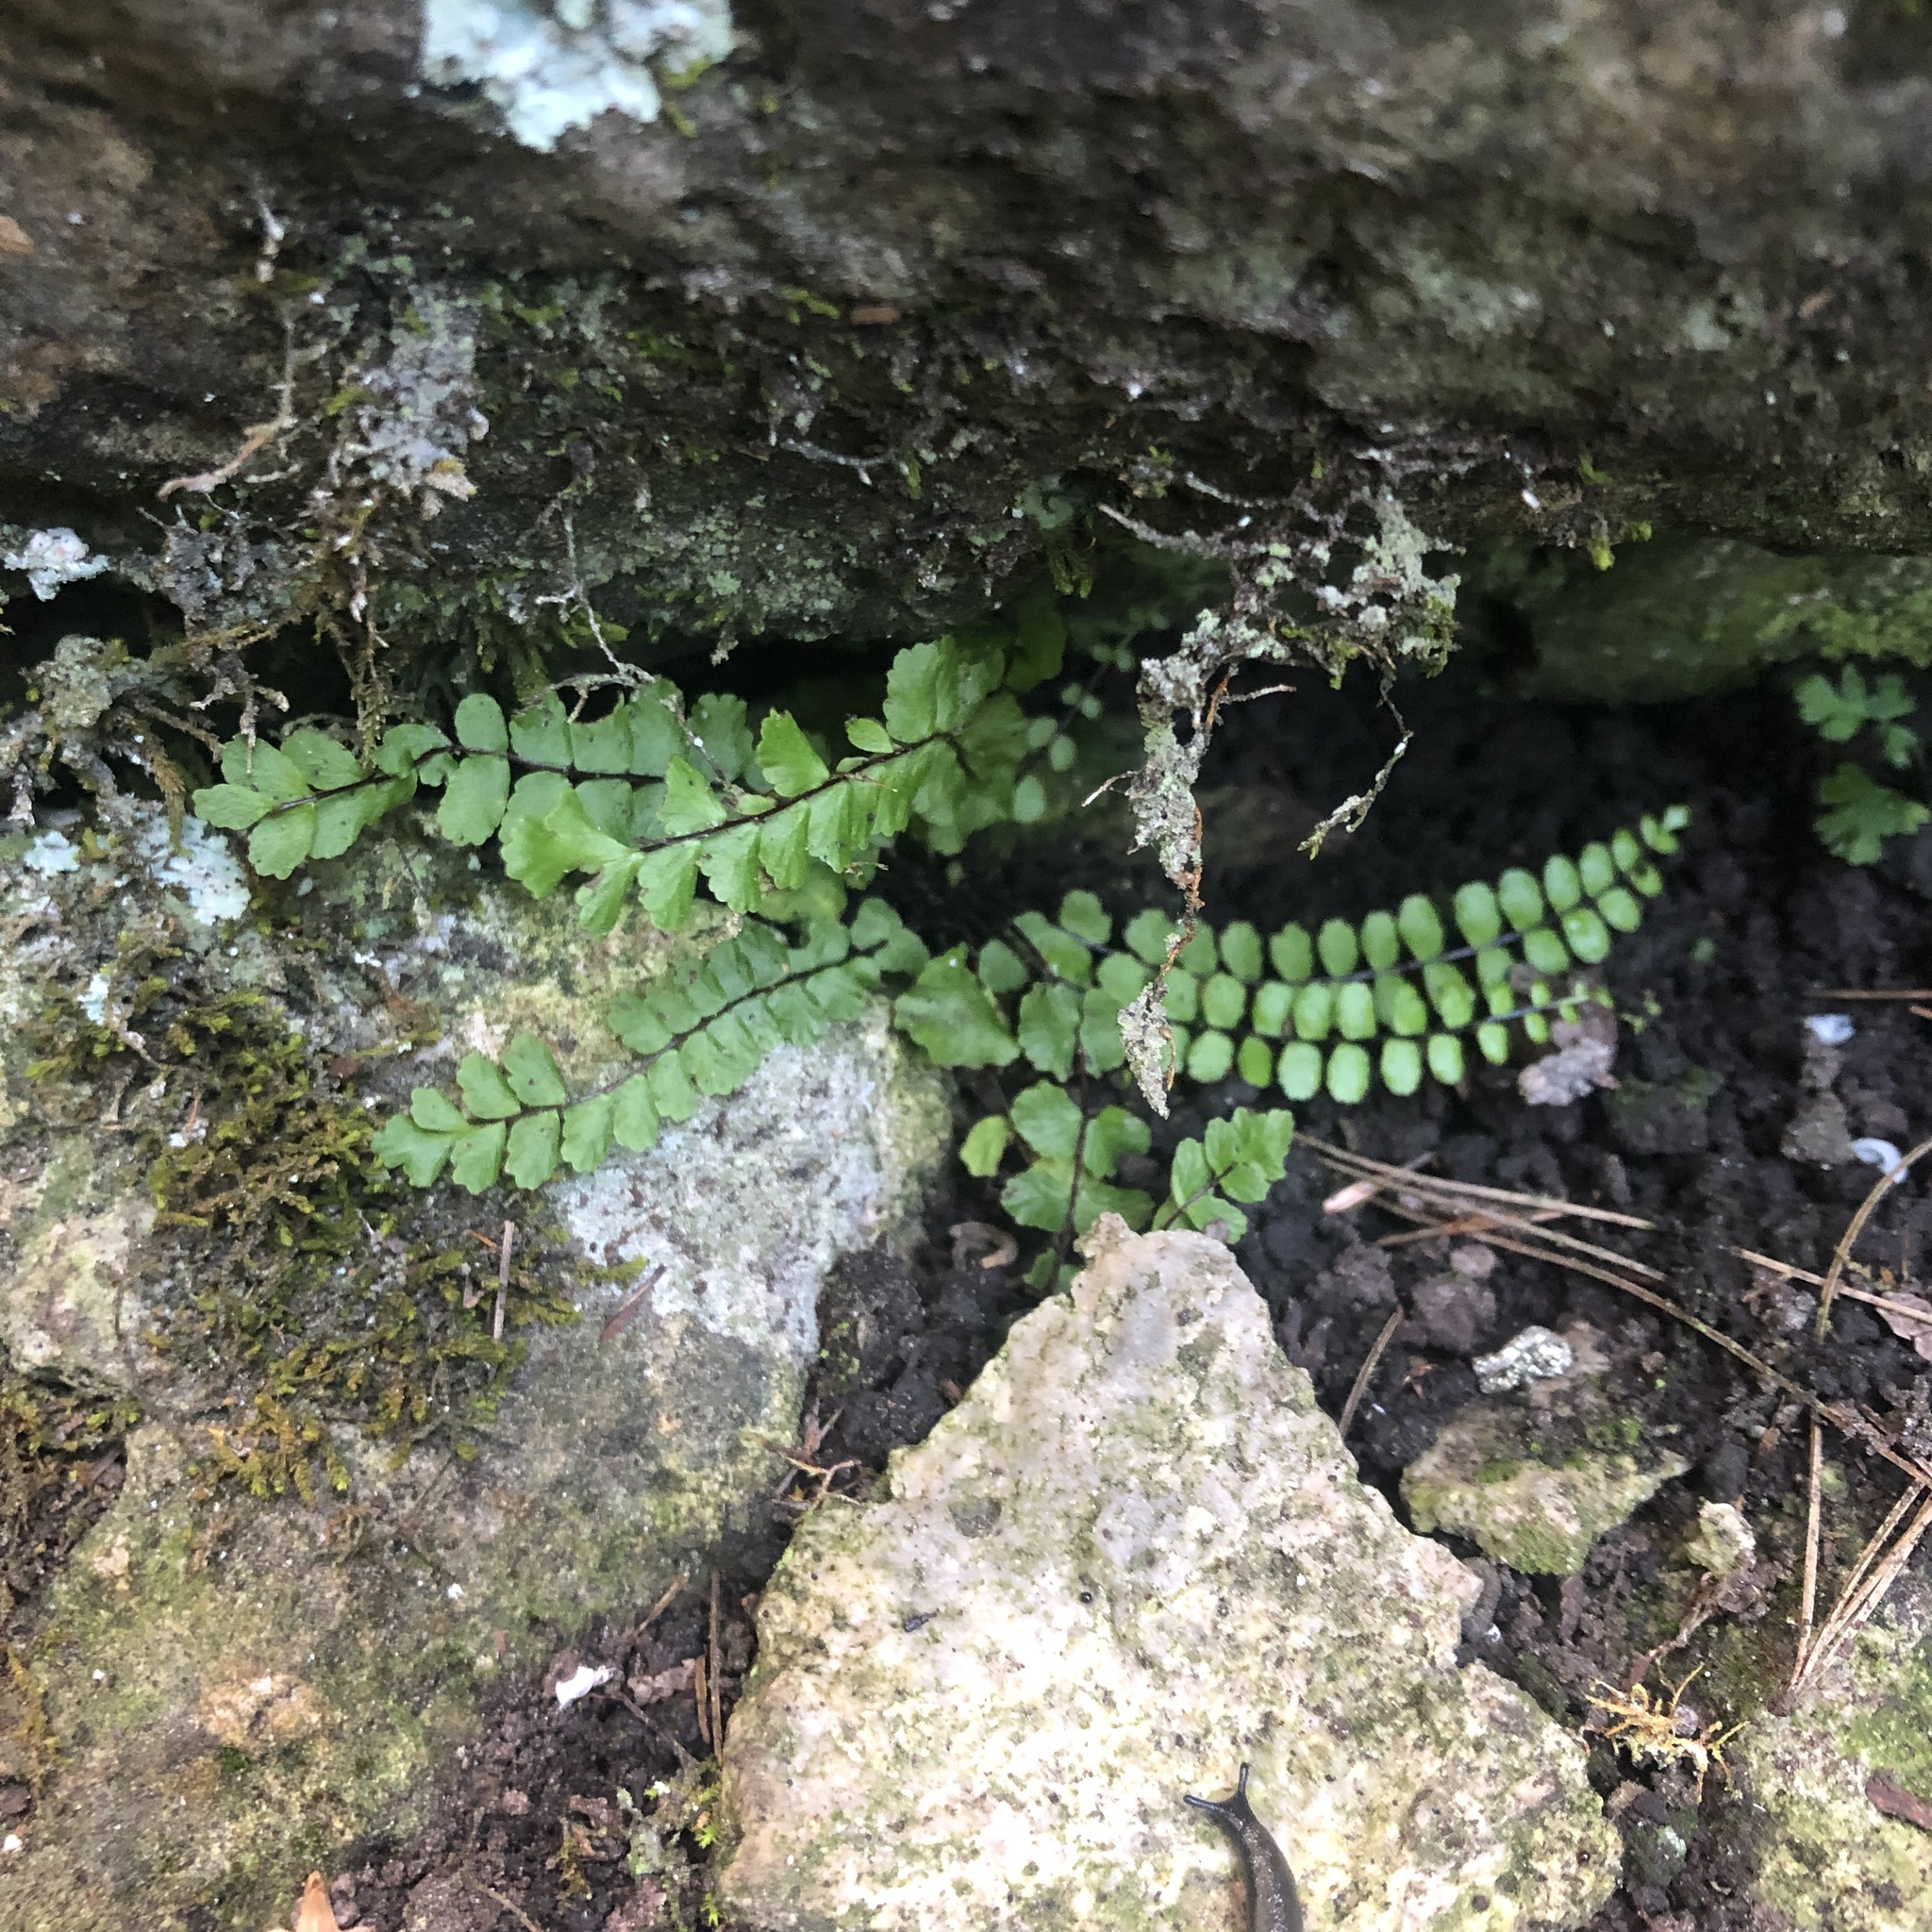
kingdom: Plantae
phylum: Tracheophyta
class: Polypodiopsida
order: Polypodiales
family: Aspleniaceae
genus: Asplenium
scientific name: Asplenium trichomanes
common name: Maidenhair spleenwort
